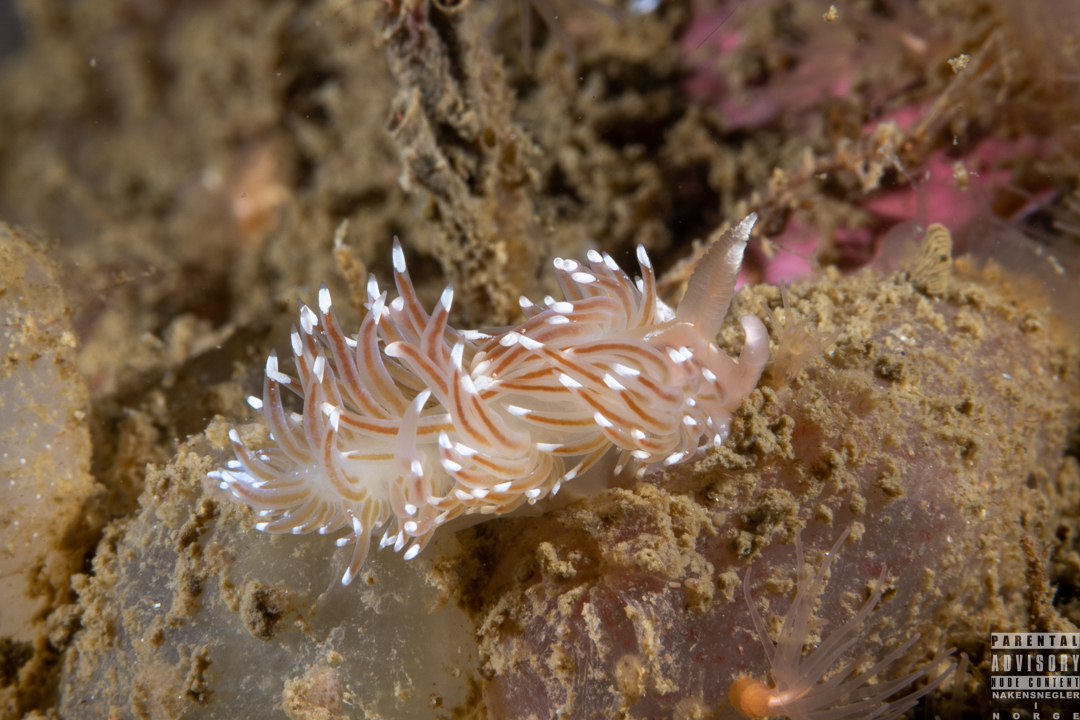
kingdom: Animalia
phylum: Mollusca
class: Gastropoda
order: Nudibranchia
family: Facelinidae
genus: Facelina
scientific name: Facelina bostoniensis
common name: Boston facelina
